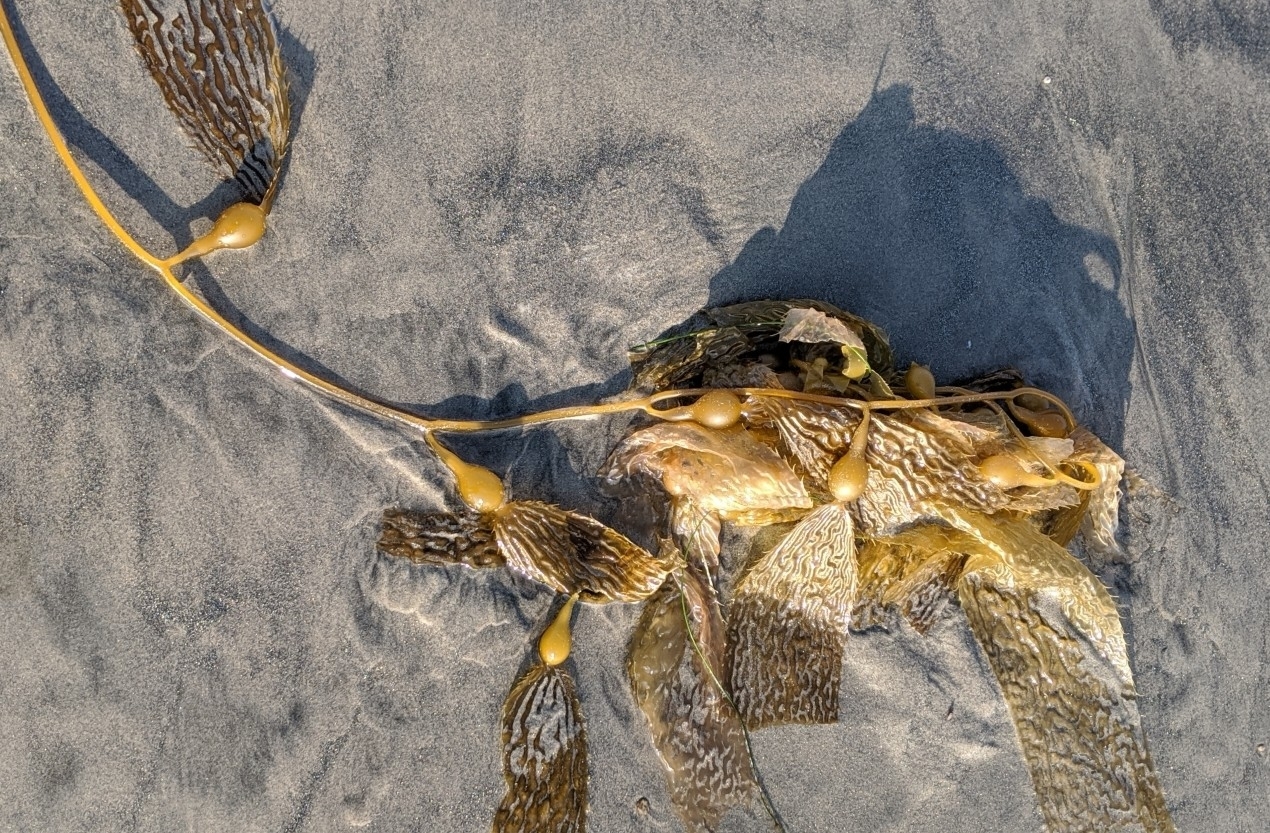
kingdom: Chromista
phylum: Ochrophyta
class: Phaeophyceae
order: Laminariales
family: Laminariaceae
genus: Macrocystis
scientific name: Macrocystis pyrifera
